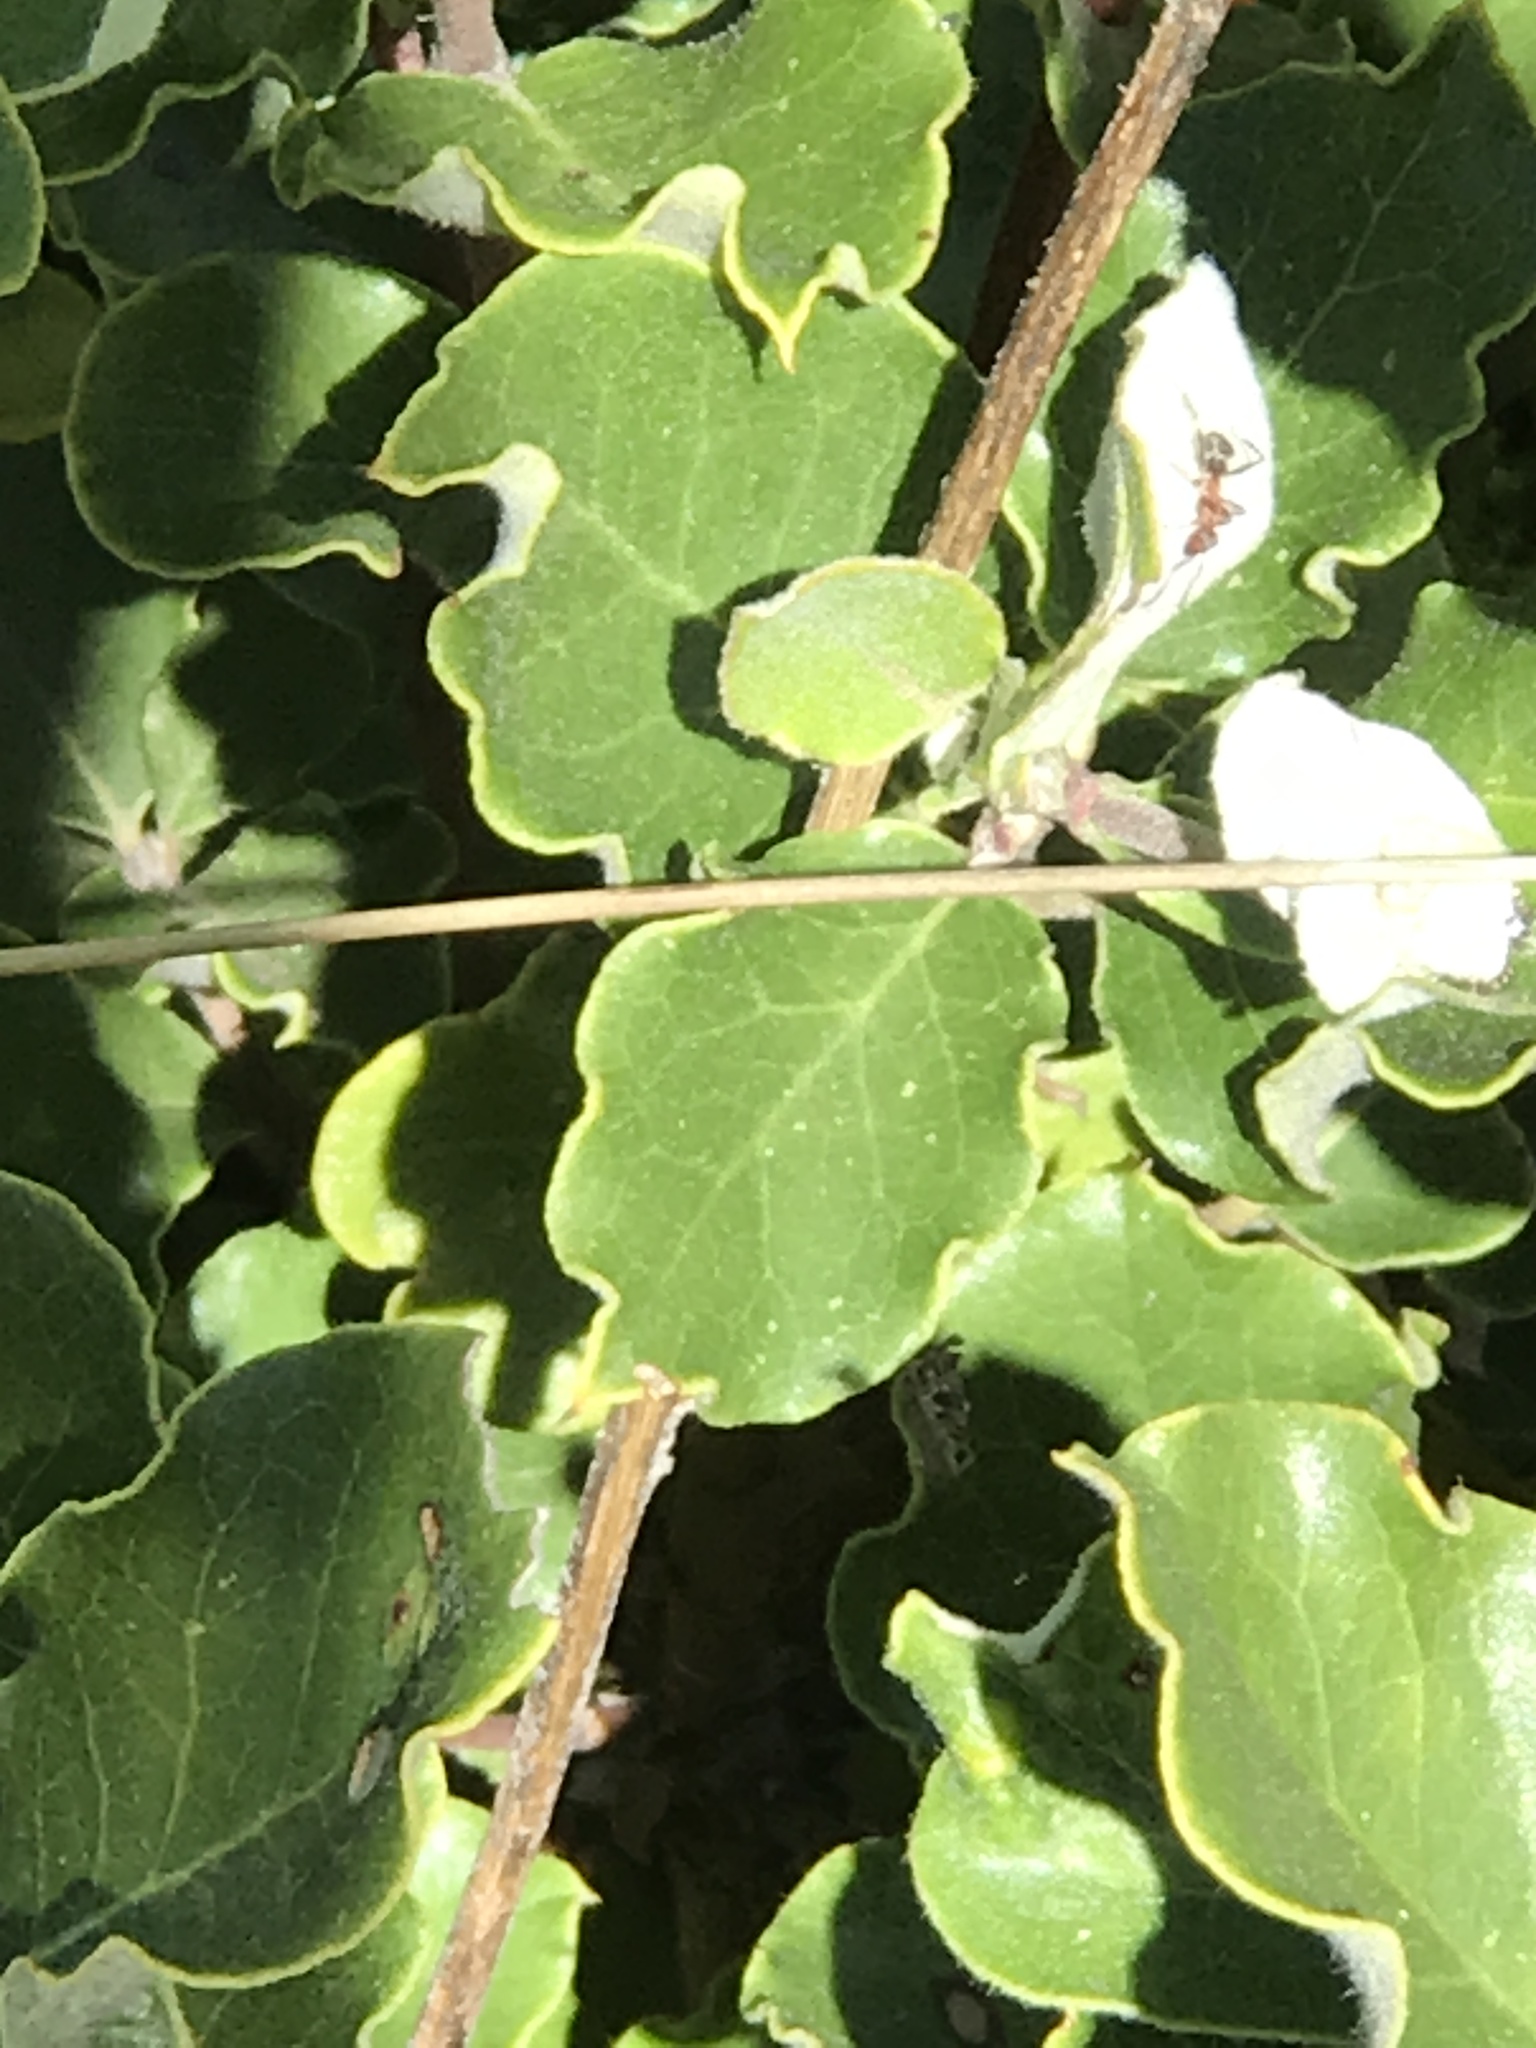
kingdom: Plantae
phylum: Tracheophyta
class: Magnoliopsida
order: Garryales
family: Garryaceae
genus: Garrya
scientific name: Garrya elliptica
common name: Silk-tassel
